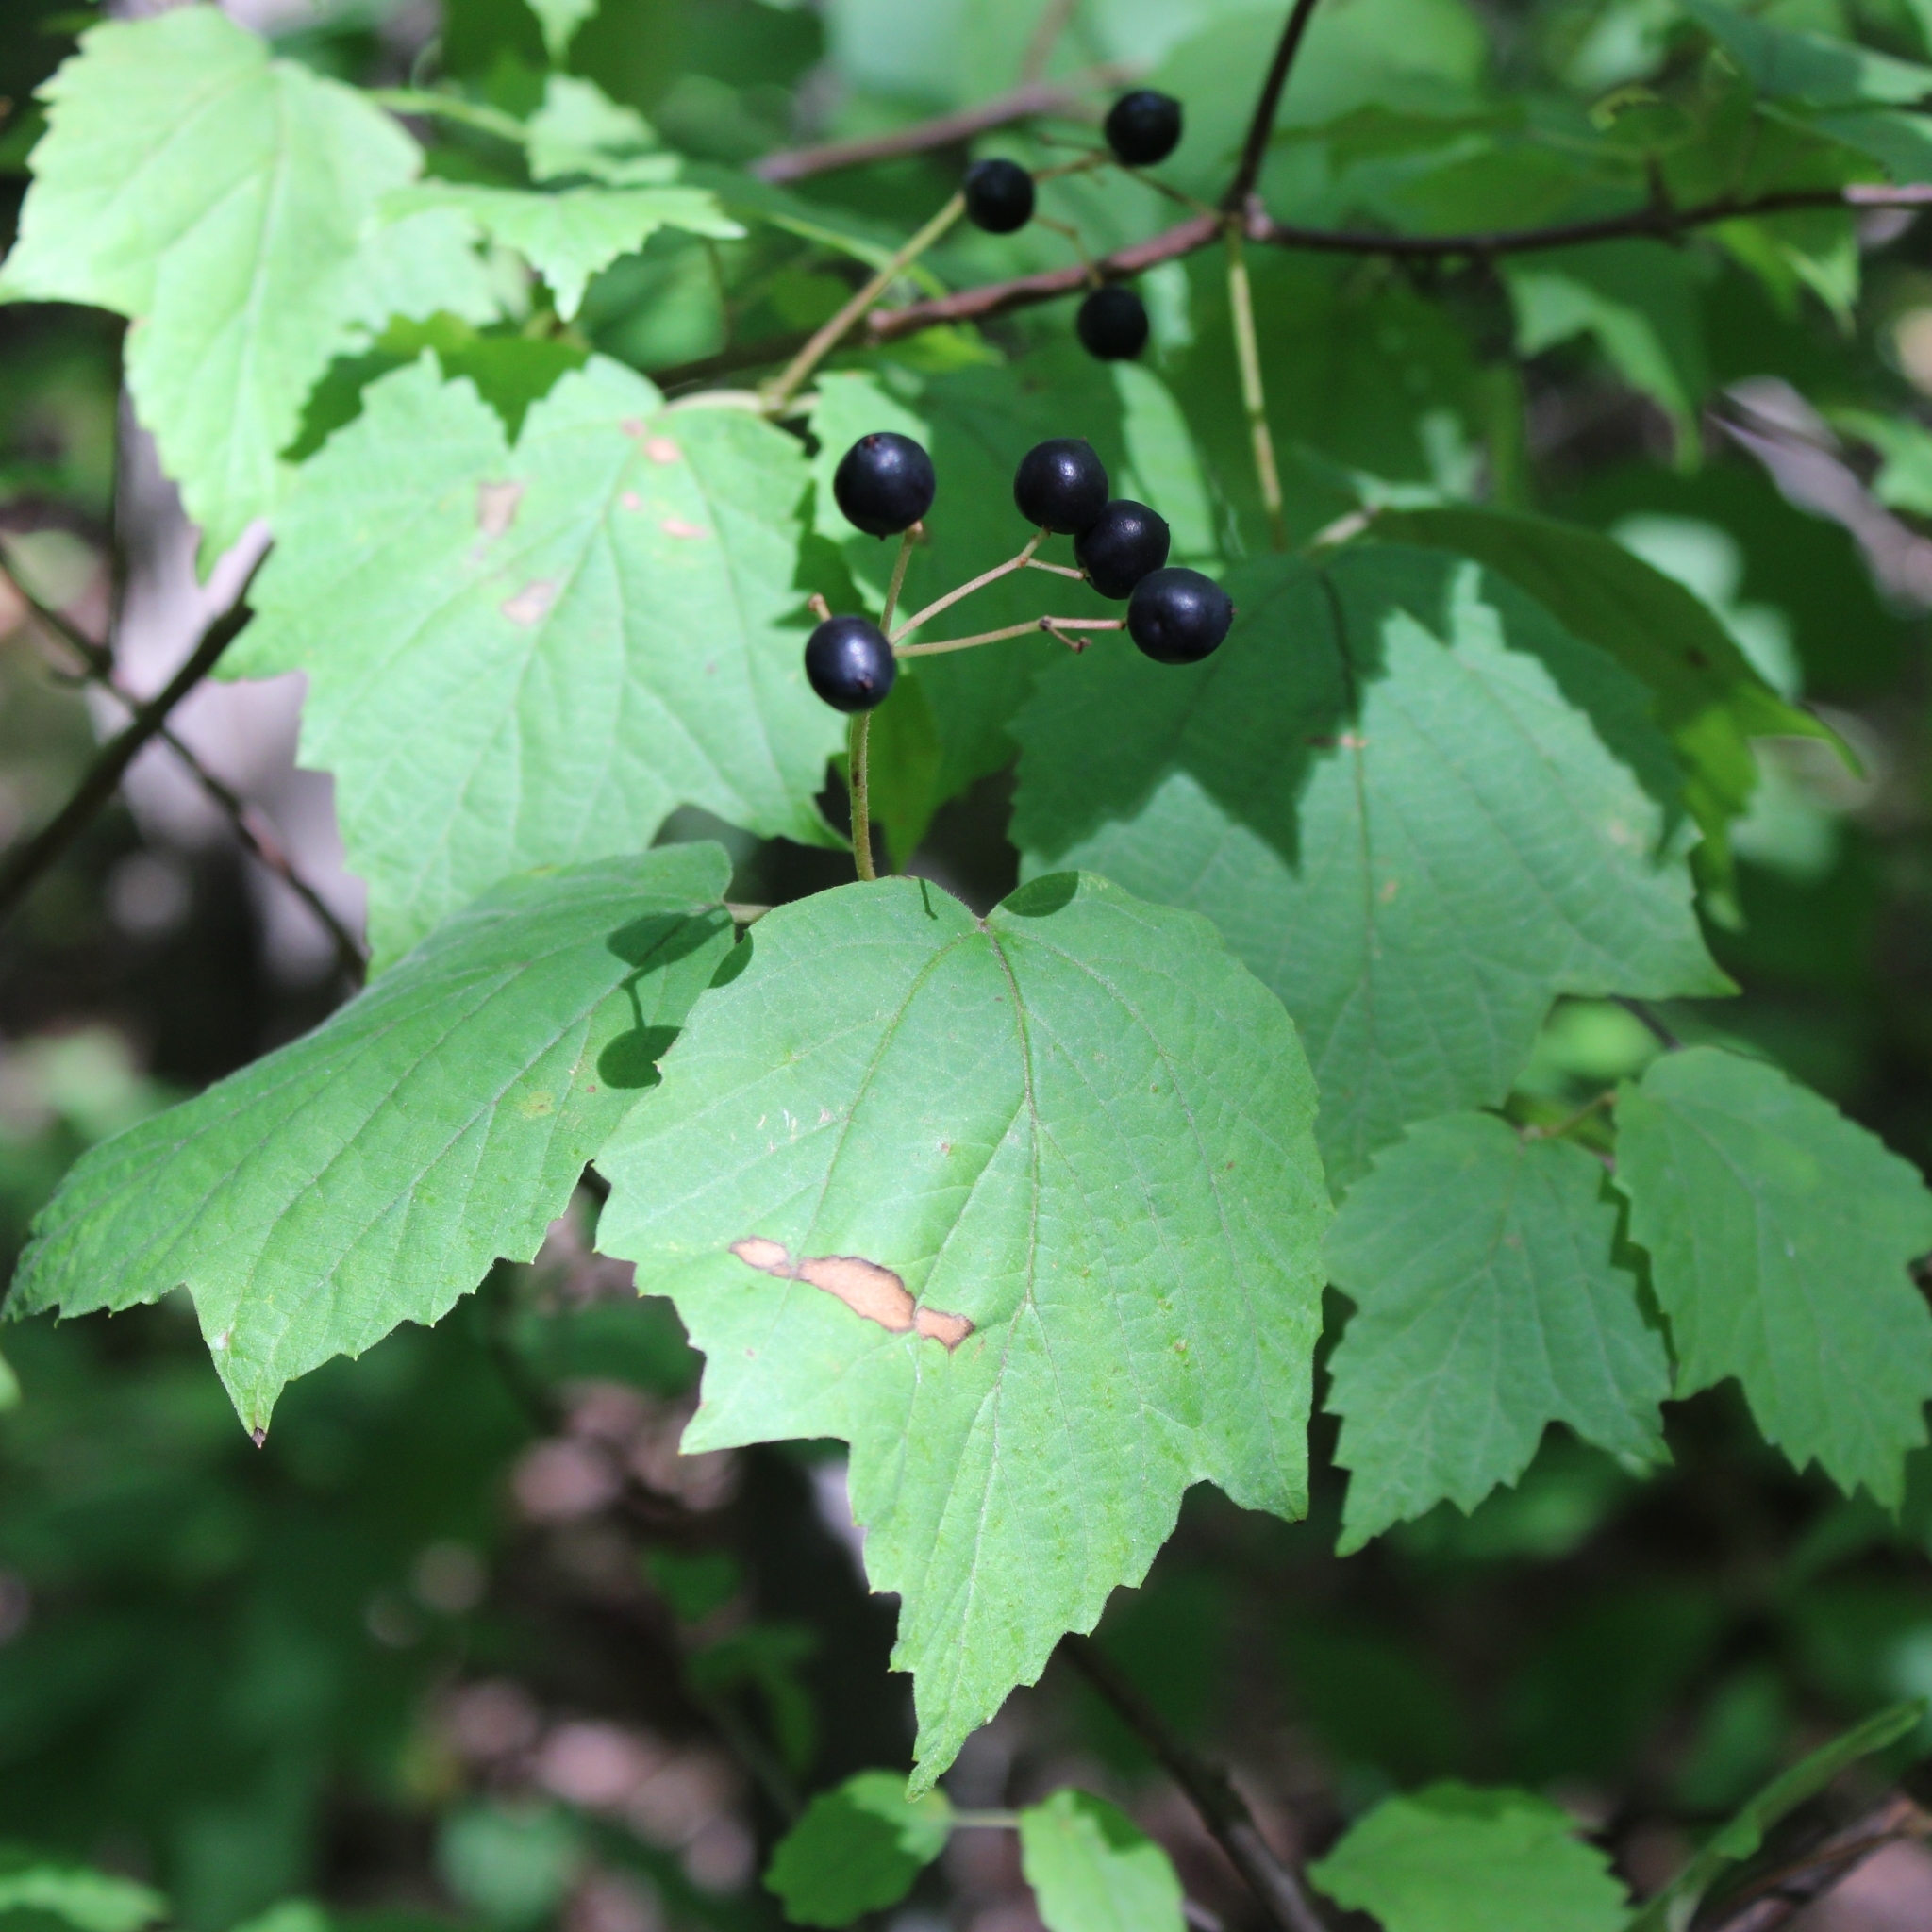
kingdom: Plantae
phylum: Tracheophyta
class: Magnoliopsida
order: Dipsacales
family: Viburnaceae
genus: Viburnum
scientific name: Viburnum acerifolium
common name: Dockmackie
